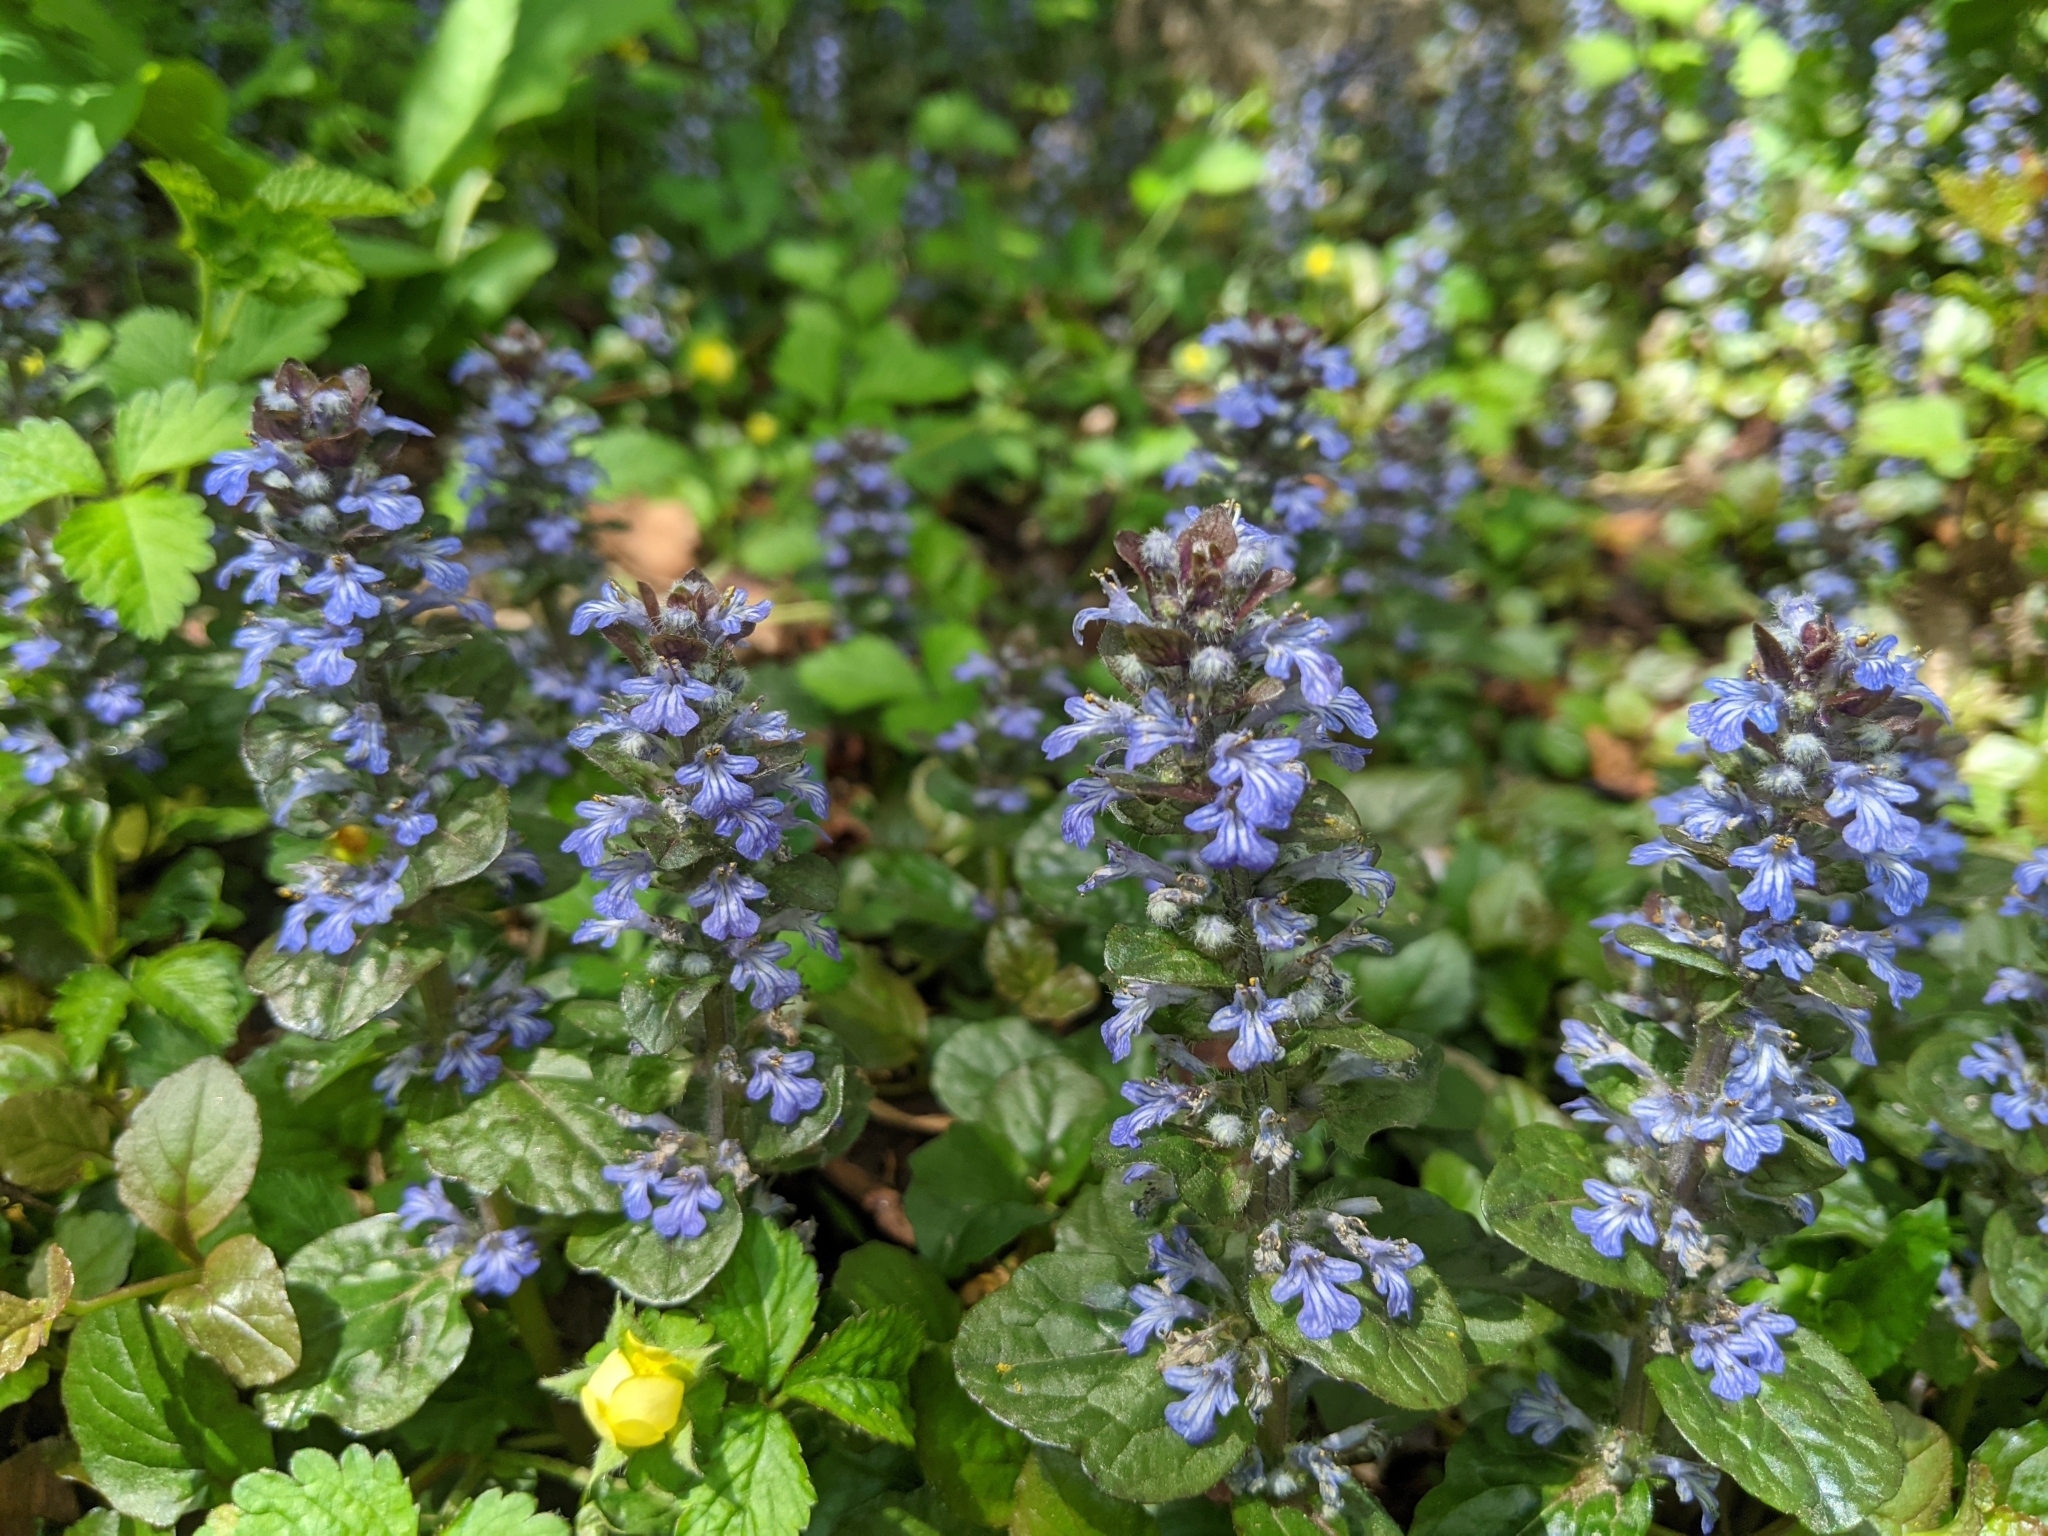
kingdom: Plantae
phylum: Tracheophyta
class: Magnoliopsida
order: Lamiales
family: Lamiaceae
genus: Ajuga
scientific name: Ajuga reptans
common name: Bugle
